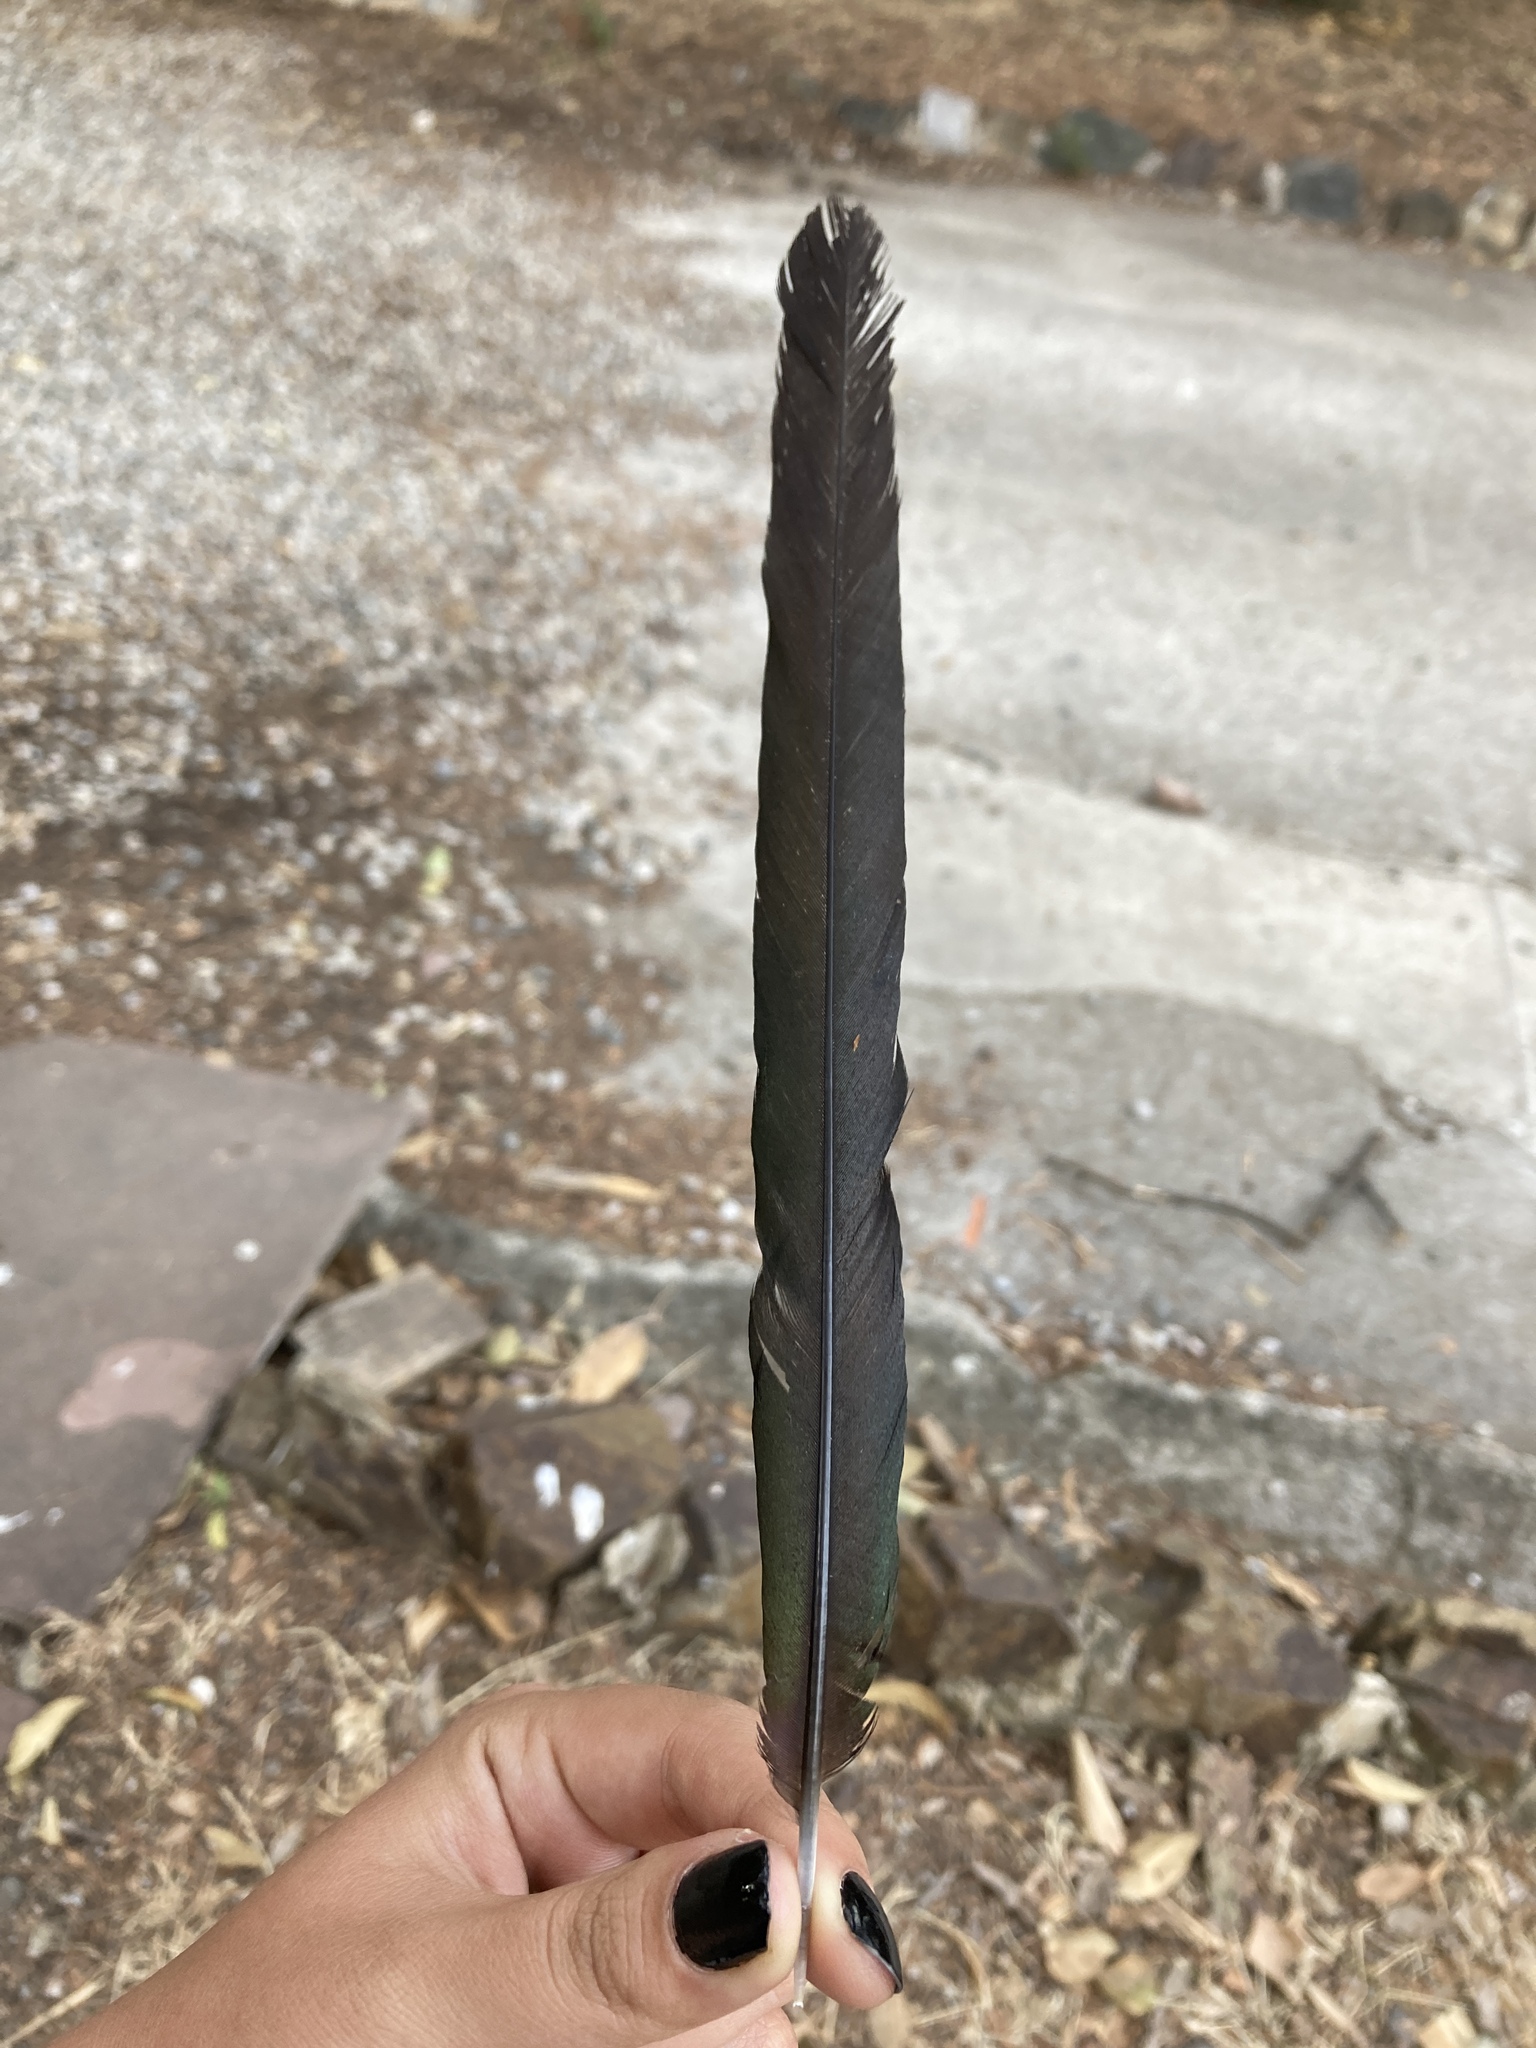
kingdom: Animalia
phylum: Chordata
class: Aves
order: Passeriformes
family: Corvidae
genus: Pica
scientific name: Pica pica
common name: Eurasian magpie
